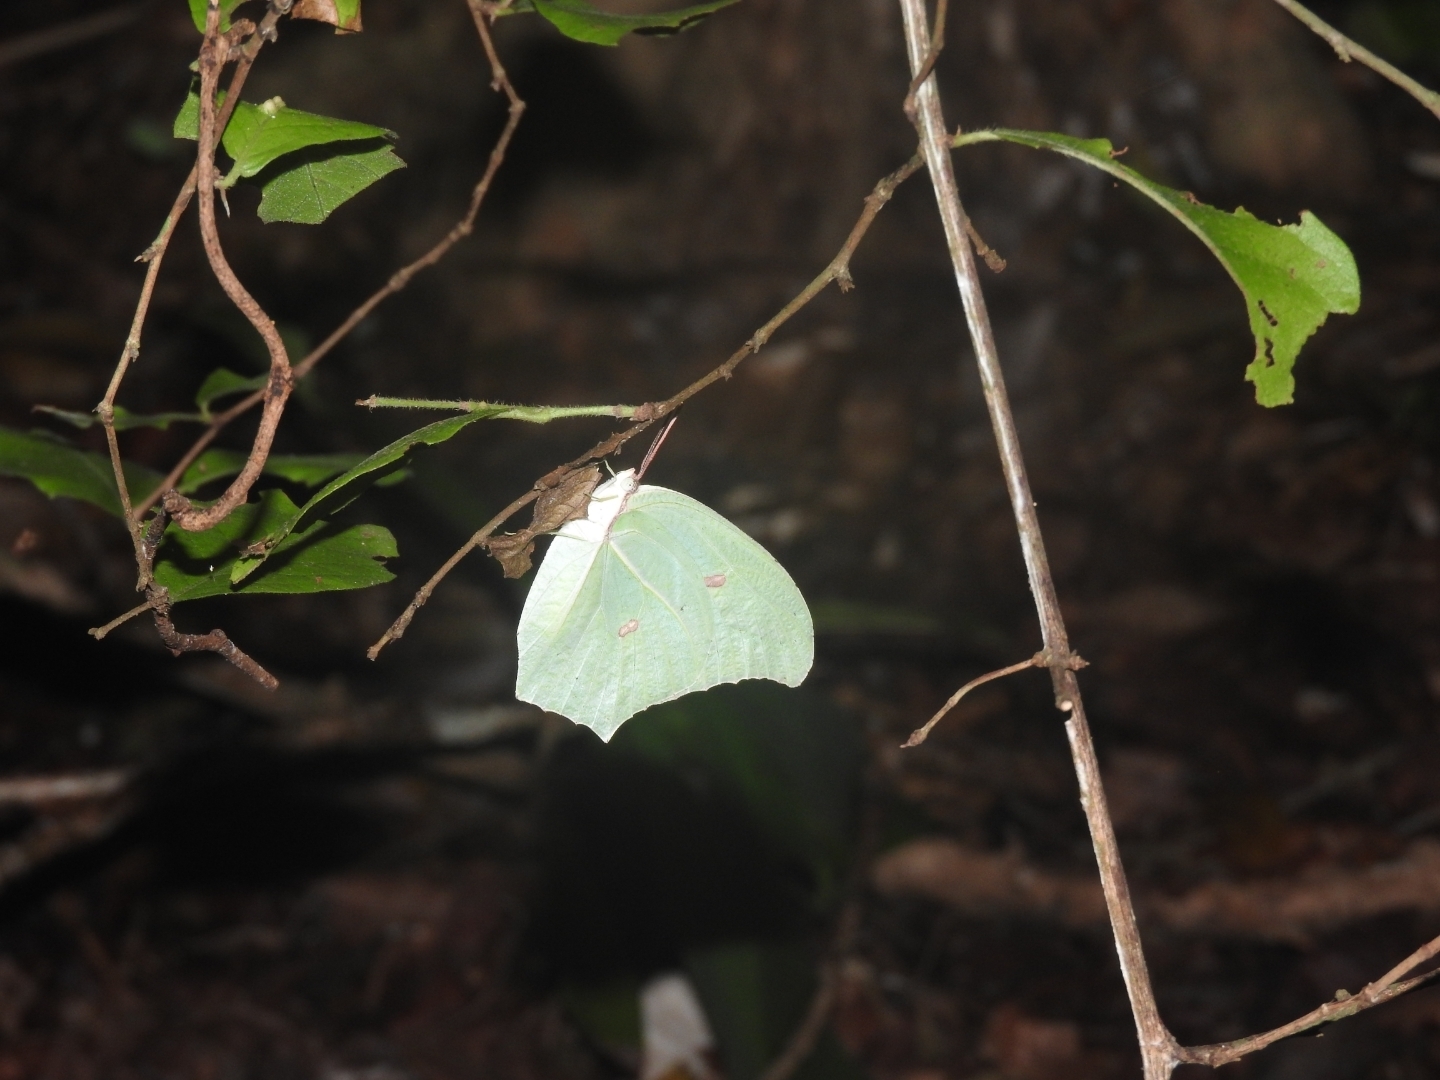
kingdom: Animalia
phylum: Arthropoda
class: Insecta
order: Lepidoptera
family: Pieridae
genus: Anteos
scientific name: Anteos maerula
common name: Angled sulphur
